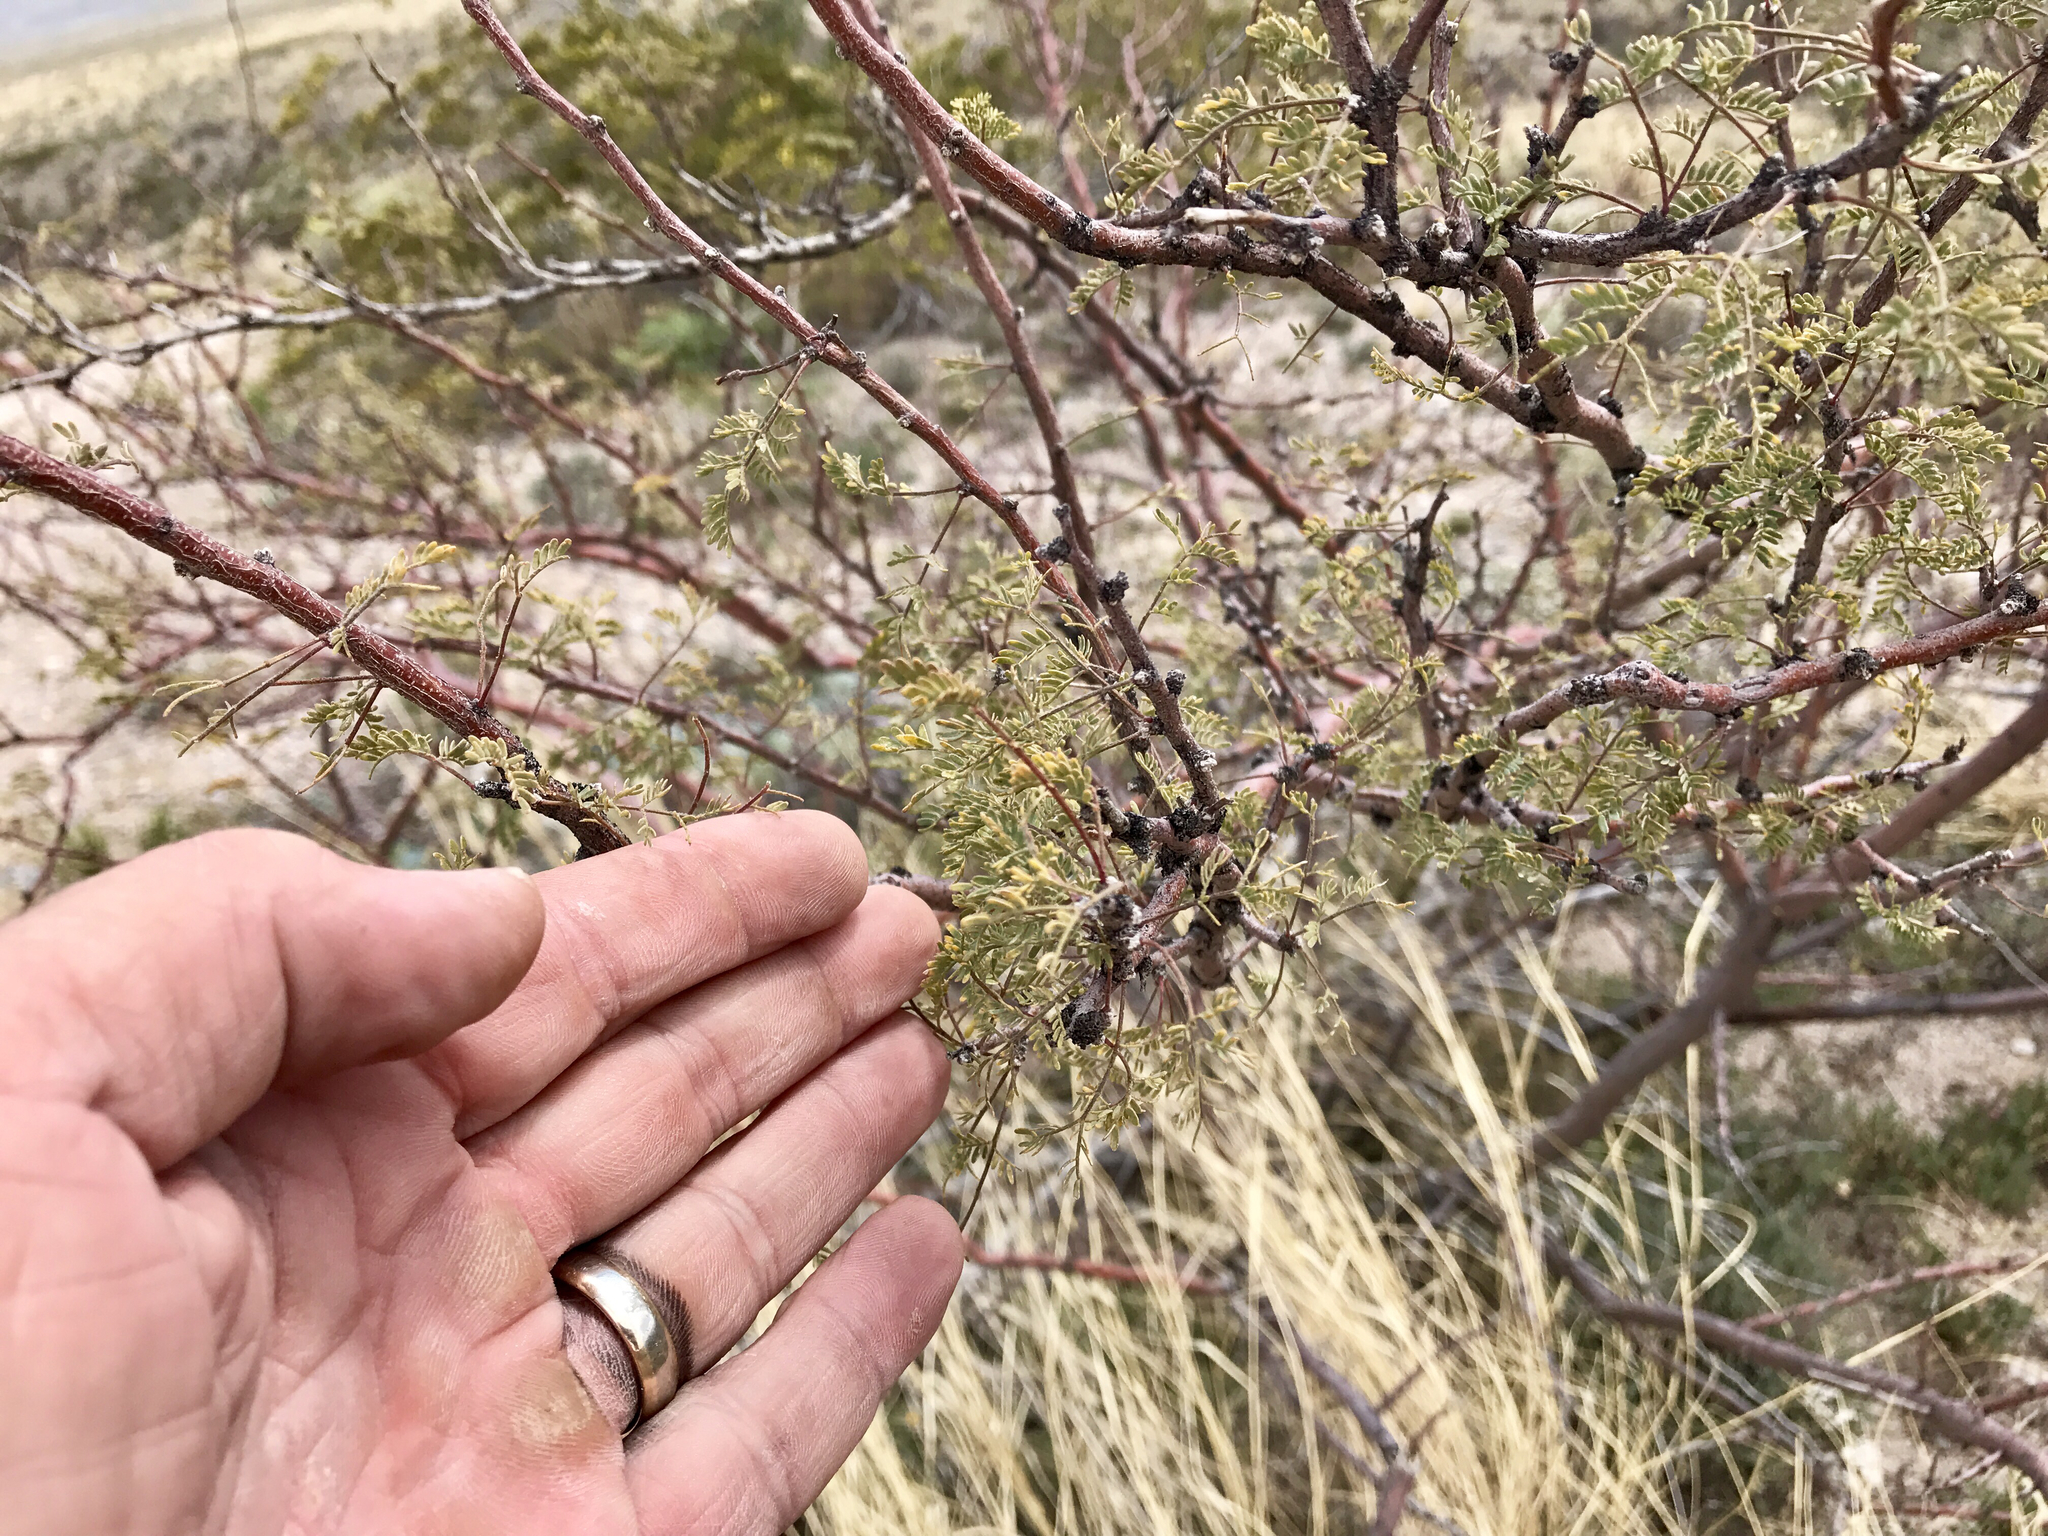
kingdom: Plantae
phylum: Tracheophyta
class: Magnoliopsida
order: Fabales
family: Fabaceae
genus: Vachellia
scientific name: Vachellia constricta
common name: Mescat acacia
